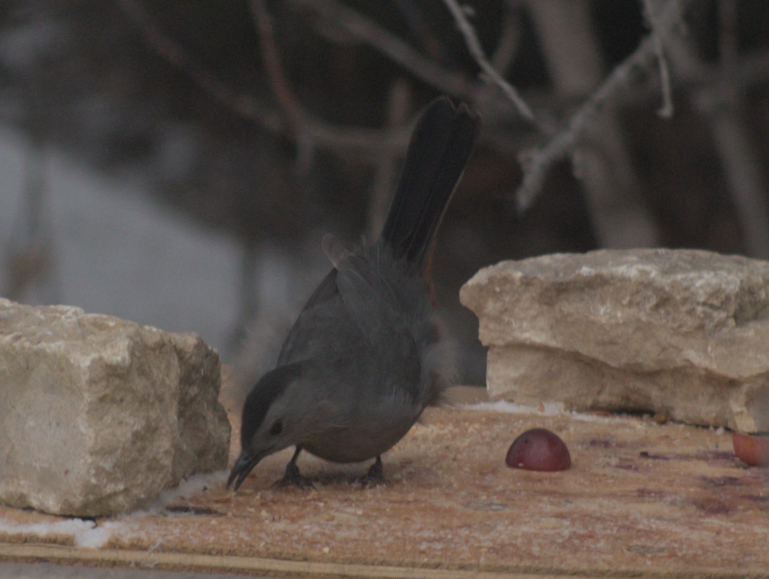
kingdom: Animalia
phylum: Chordata
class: Aves
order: Passeriformes
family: Mimidae
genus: Dumetella
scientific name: Dumetella carolinensis
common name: Gray catbird
